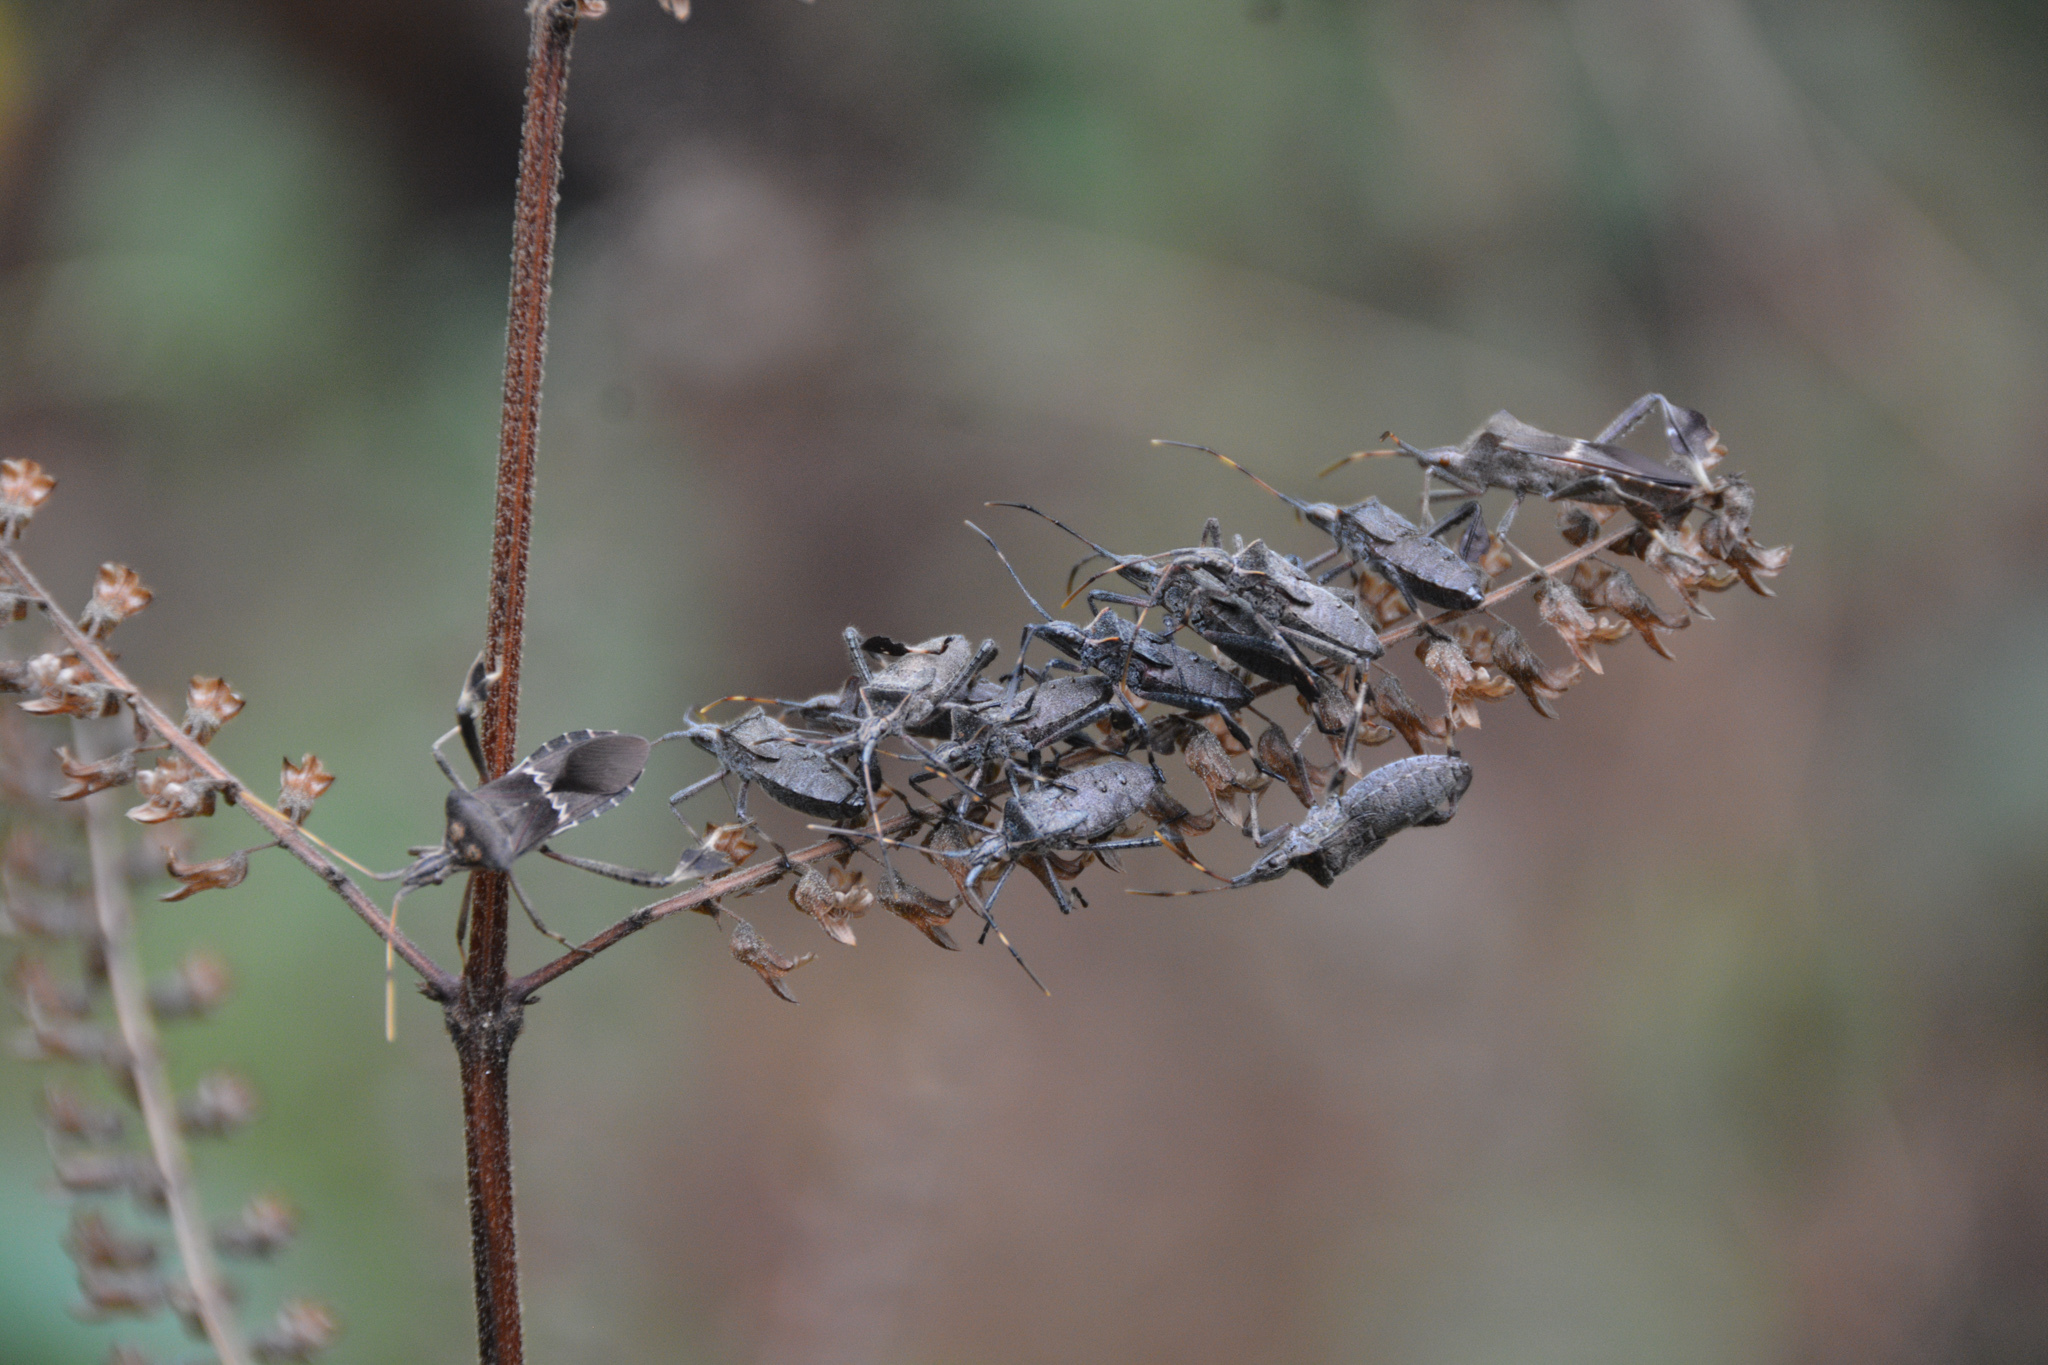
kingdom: Animalia
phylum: Arthropoda
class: Insecta
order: Hemiptera
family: Coreidae
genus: Leptoglossus
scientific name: Leptoglossus zonatus
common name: Large-legged bug
